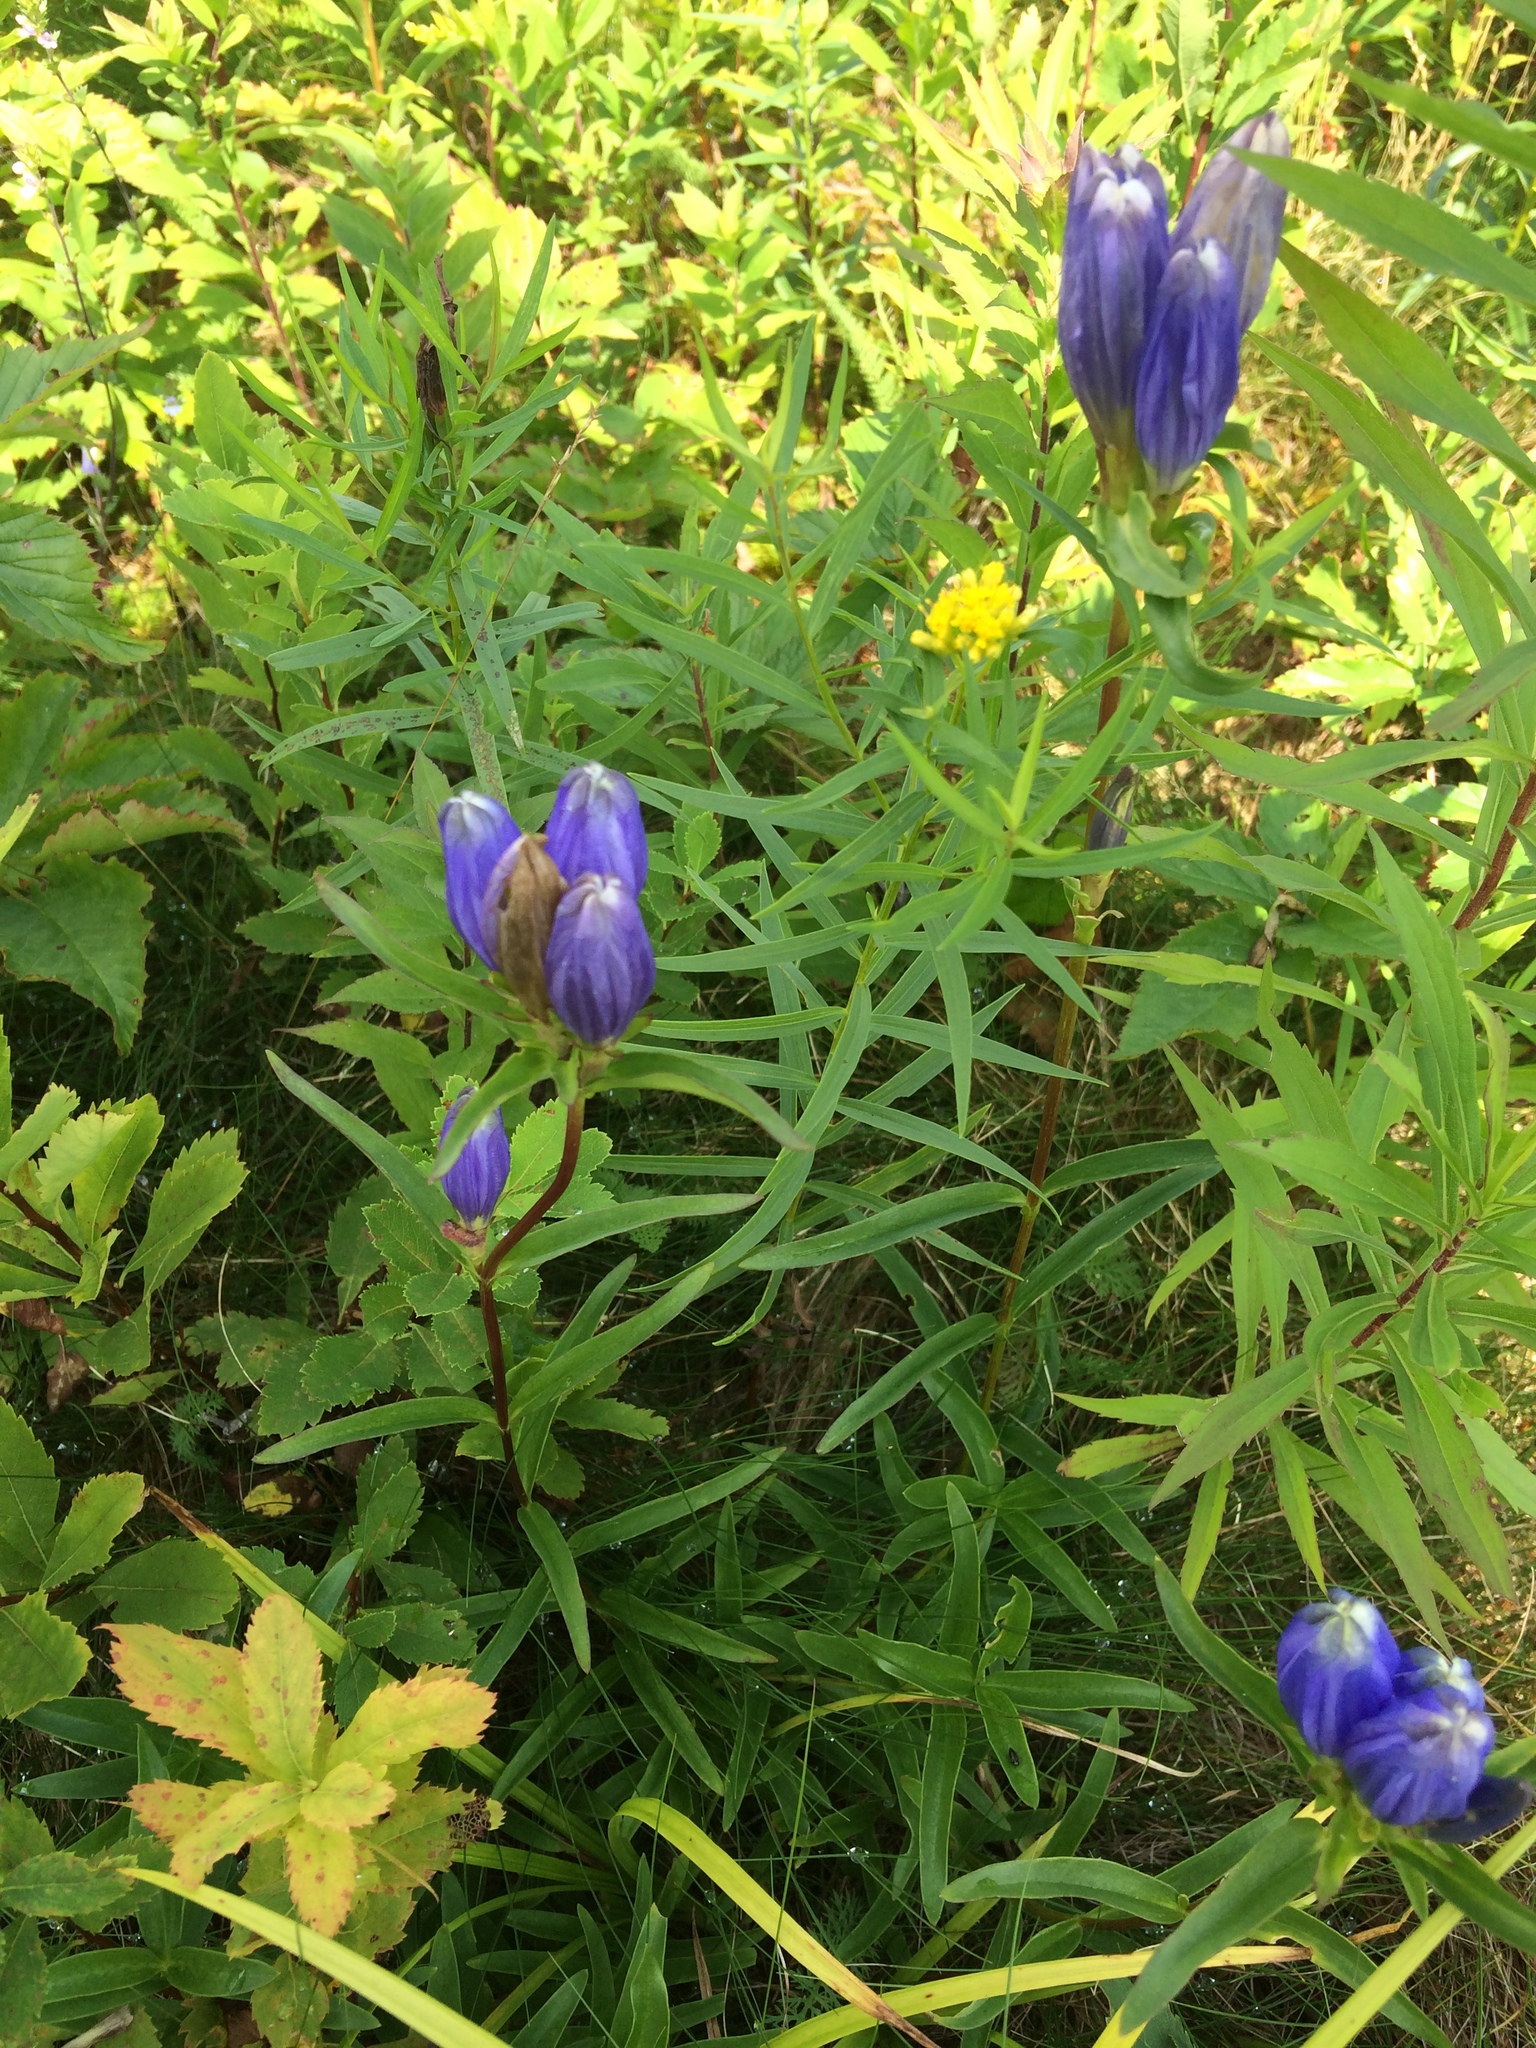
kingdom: Plantae
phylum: Tracheophyta
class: Magnoliopsida
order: Gentianales
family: Gentianaceae
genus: Gentiana
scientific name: Gentiana linearis
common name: Bastard gentian
